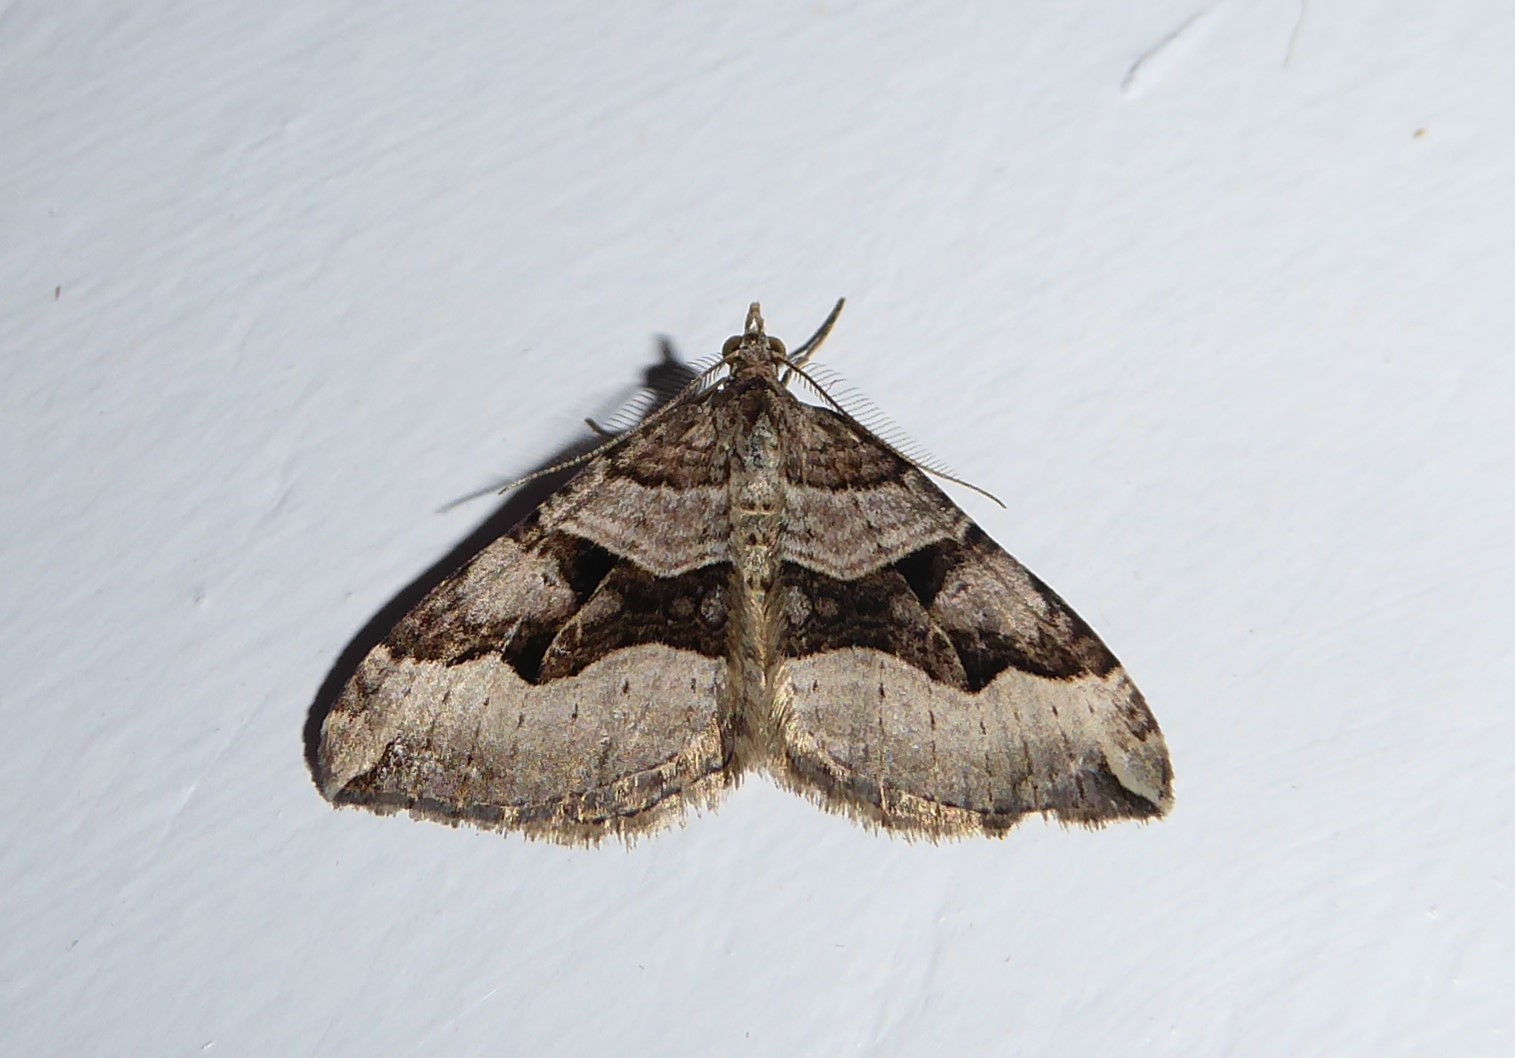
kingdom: Animalia
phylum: Arthropoda
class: Insecta
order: Lepidoptera
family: Geometridae
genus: Xanthorhoe
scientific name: Xanthorhoe semifissata
